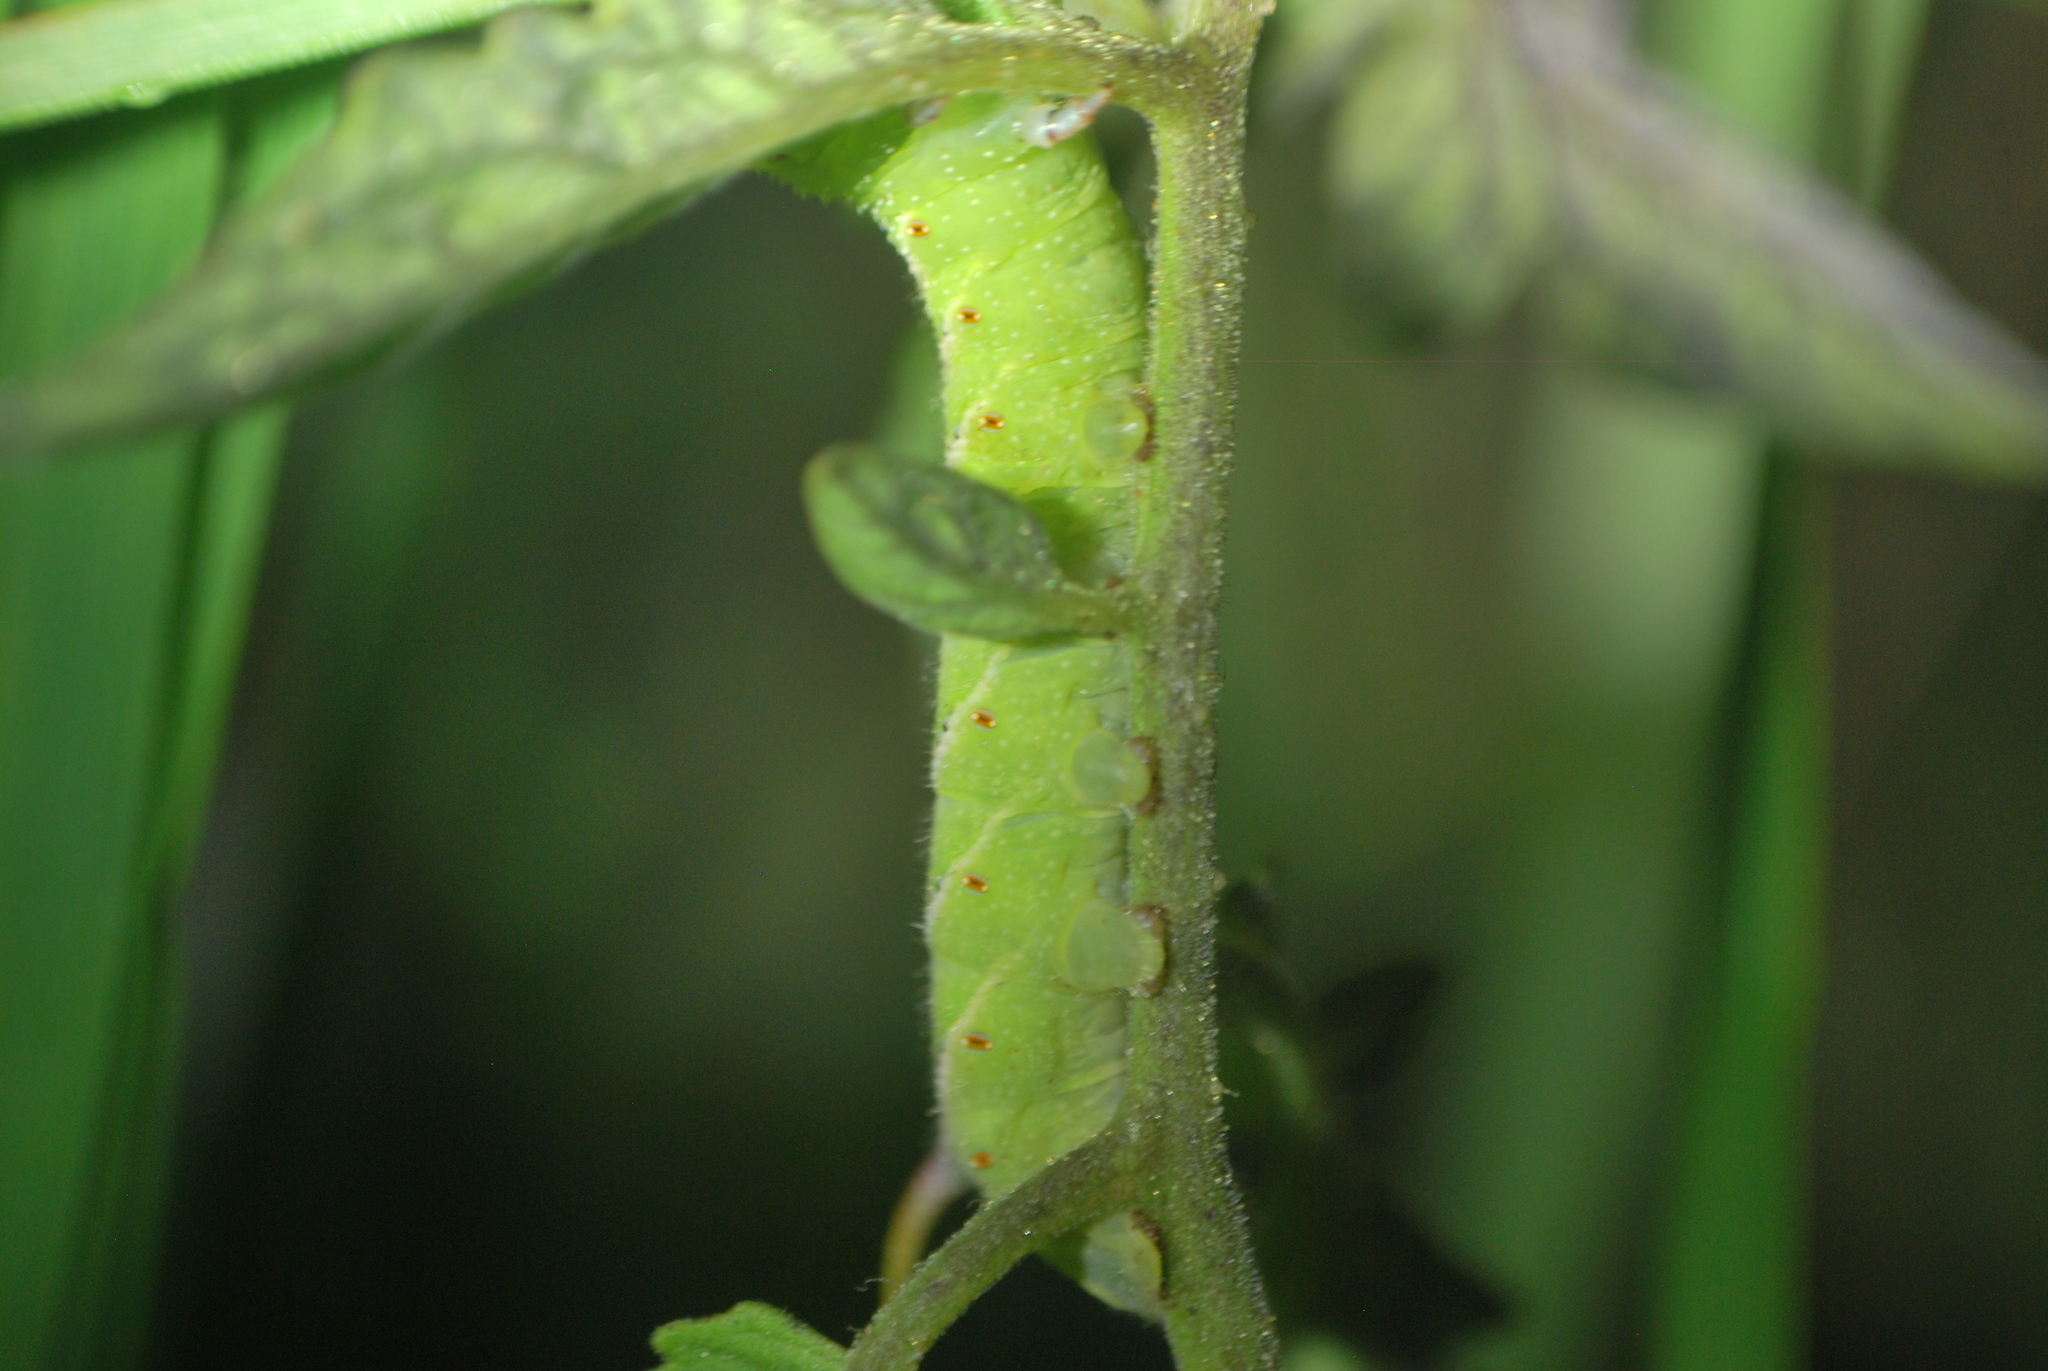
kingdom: Animalia
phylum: Arthropoda
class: Insecta
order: Lepidoptera
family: Sphingidae
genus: Manduca
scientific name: Manduca sexta
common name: Carolina sphinx
